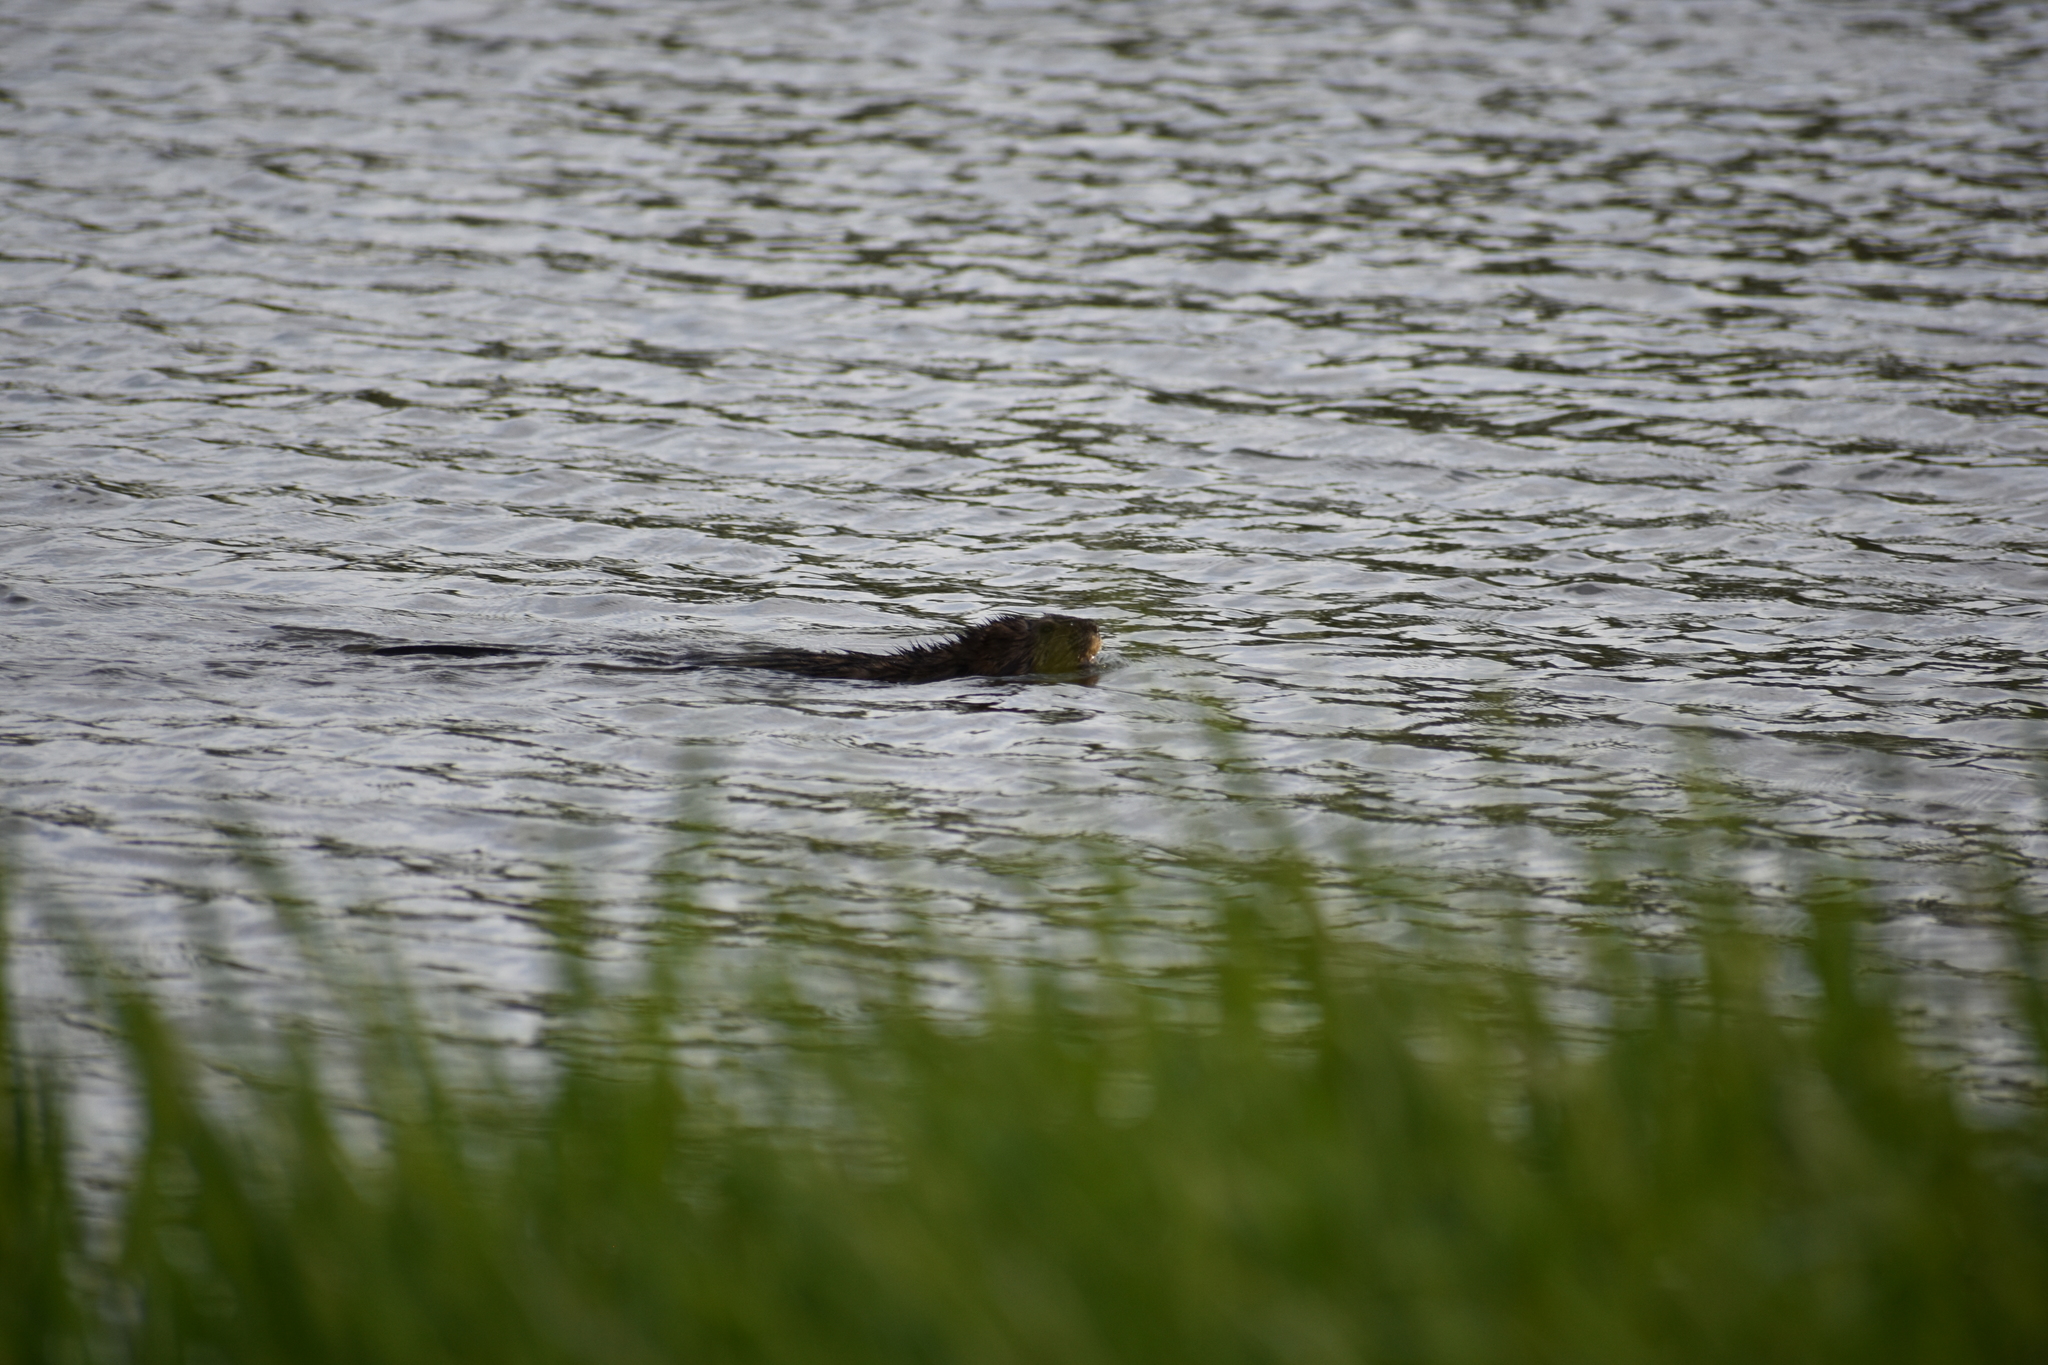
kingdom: Animalia
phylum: Chordata
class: Mammalia
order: Rodentia
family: Castoridae
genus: Castor
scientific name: Castor canadensis
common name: American beaver
